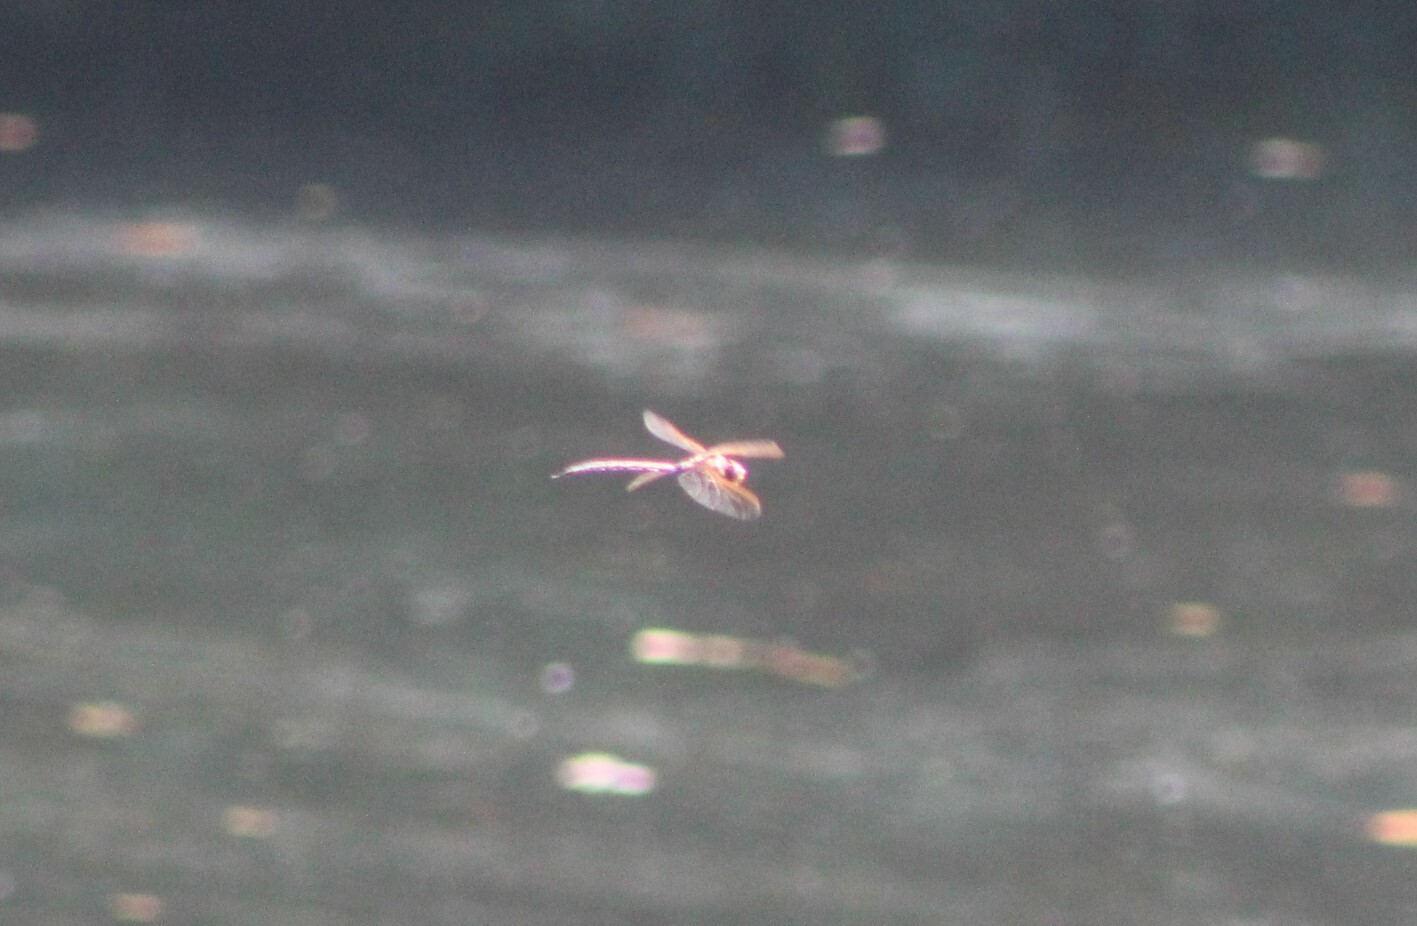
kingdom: Animalia
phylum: Arthropoda
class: Insecta
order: Odonata
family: Aeshnidae
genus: Aeshna
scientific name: Aeshna grandis
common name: Brown hawker
